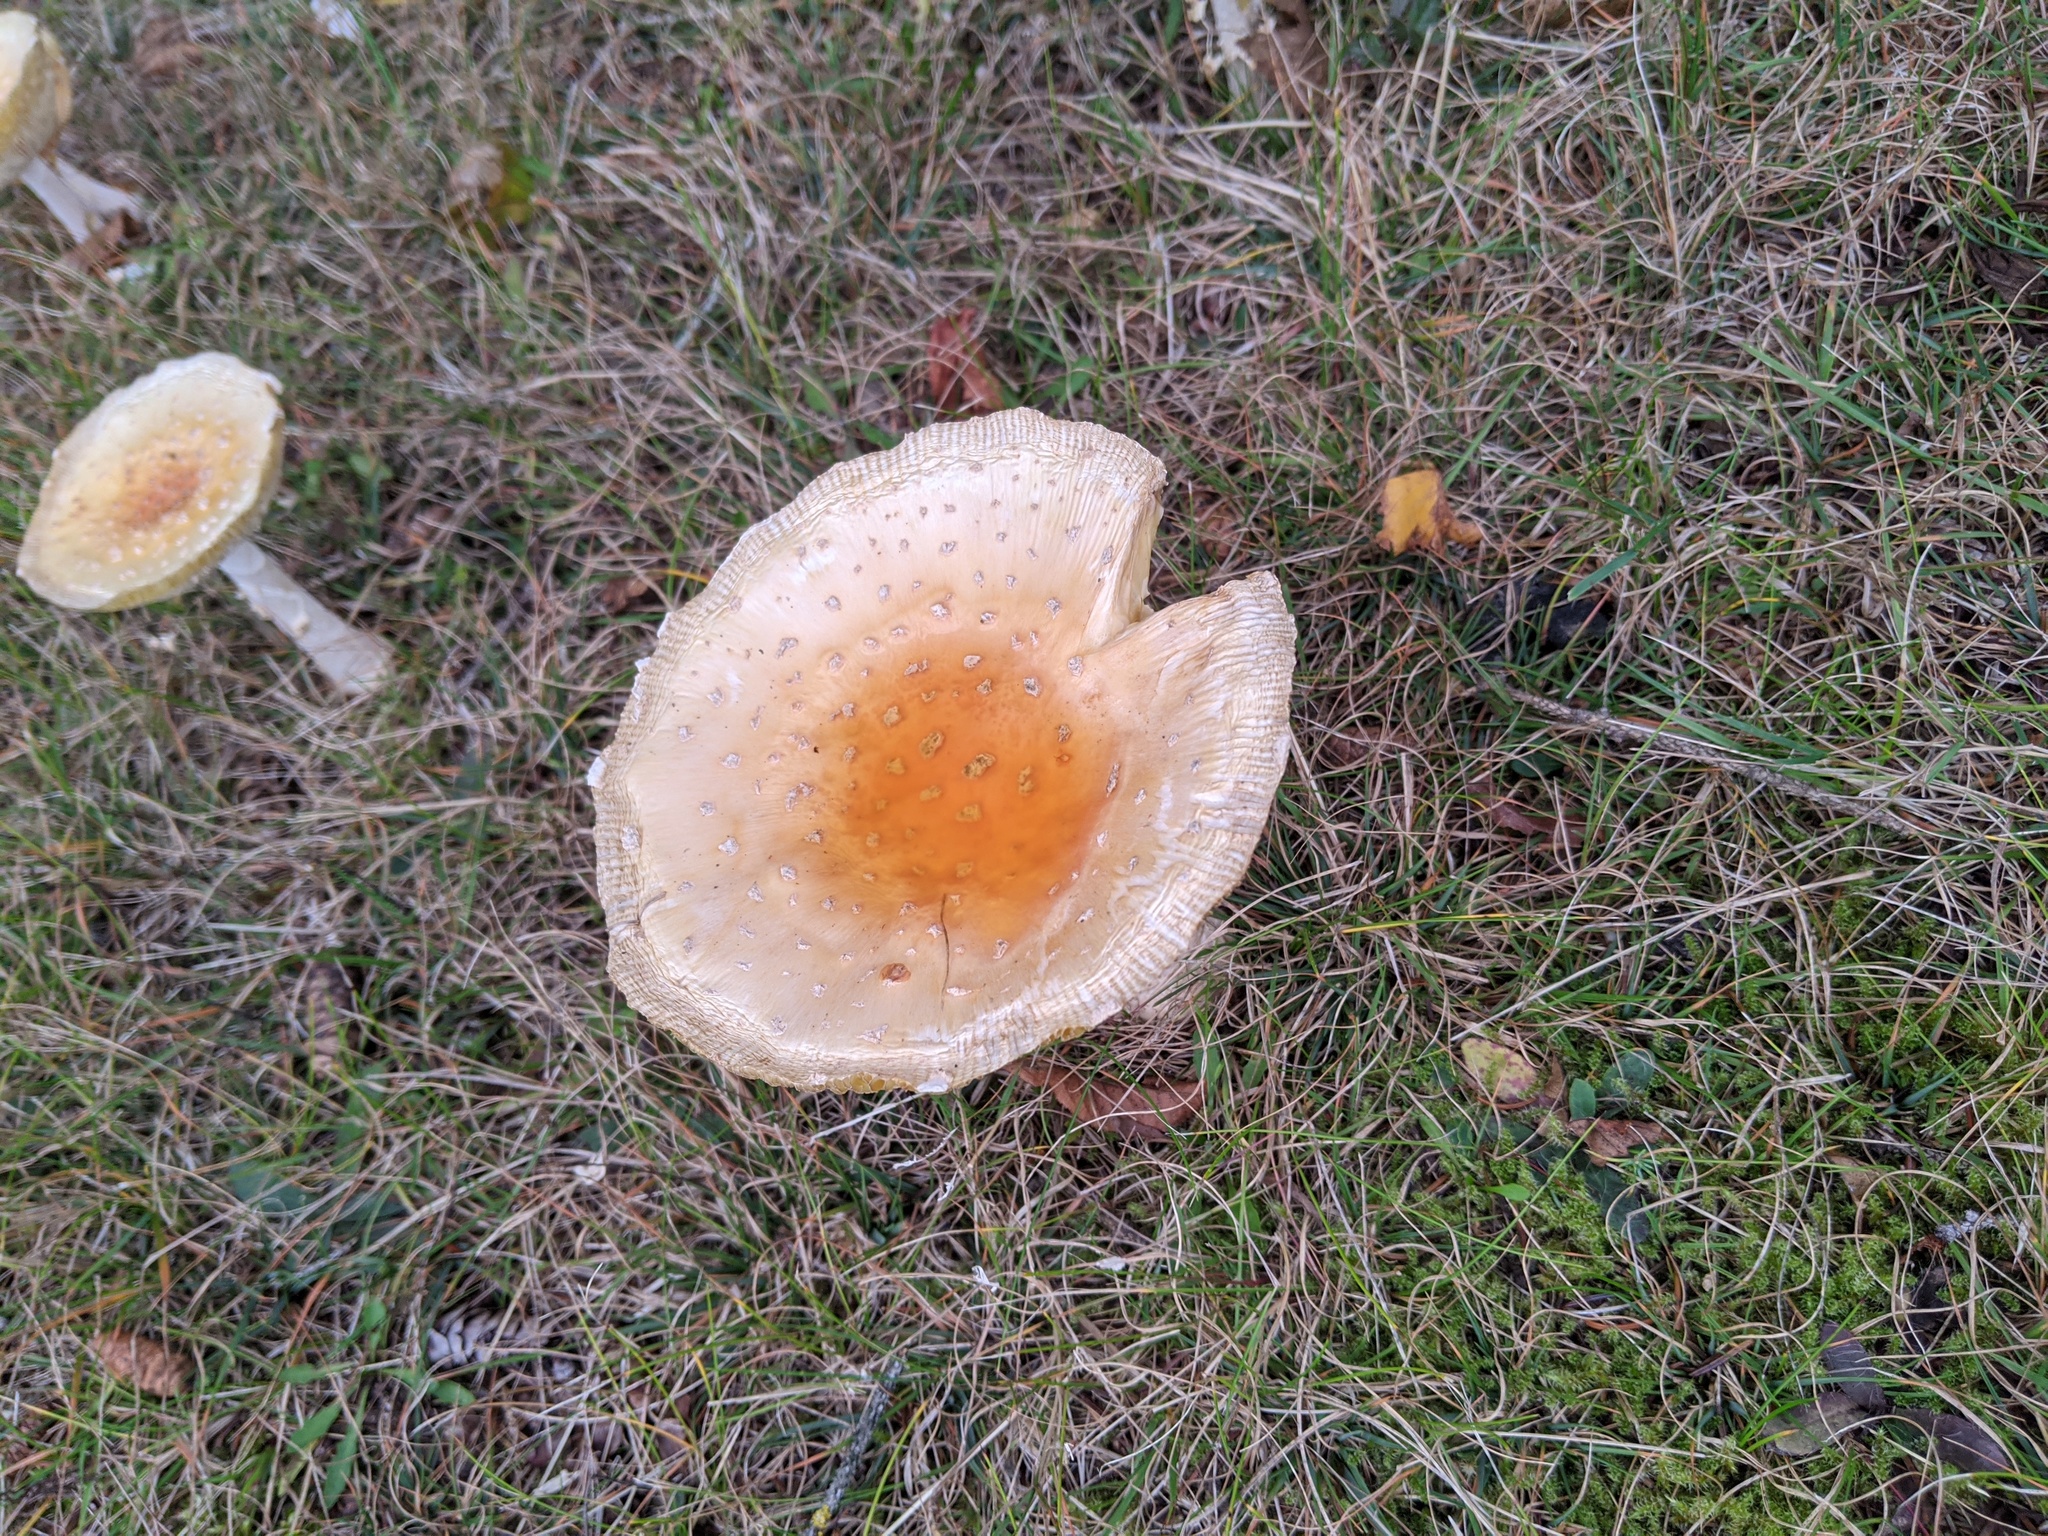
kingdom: Fungi
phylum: Basidiomycota
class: Agaricomycetes
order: Agaricales
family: Amanitaceae
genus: Amanita
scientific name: Amanita muscaria
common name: Fly agaric
